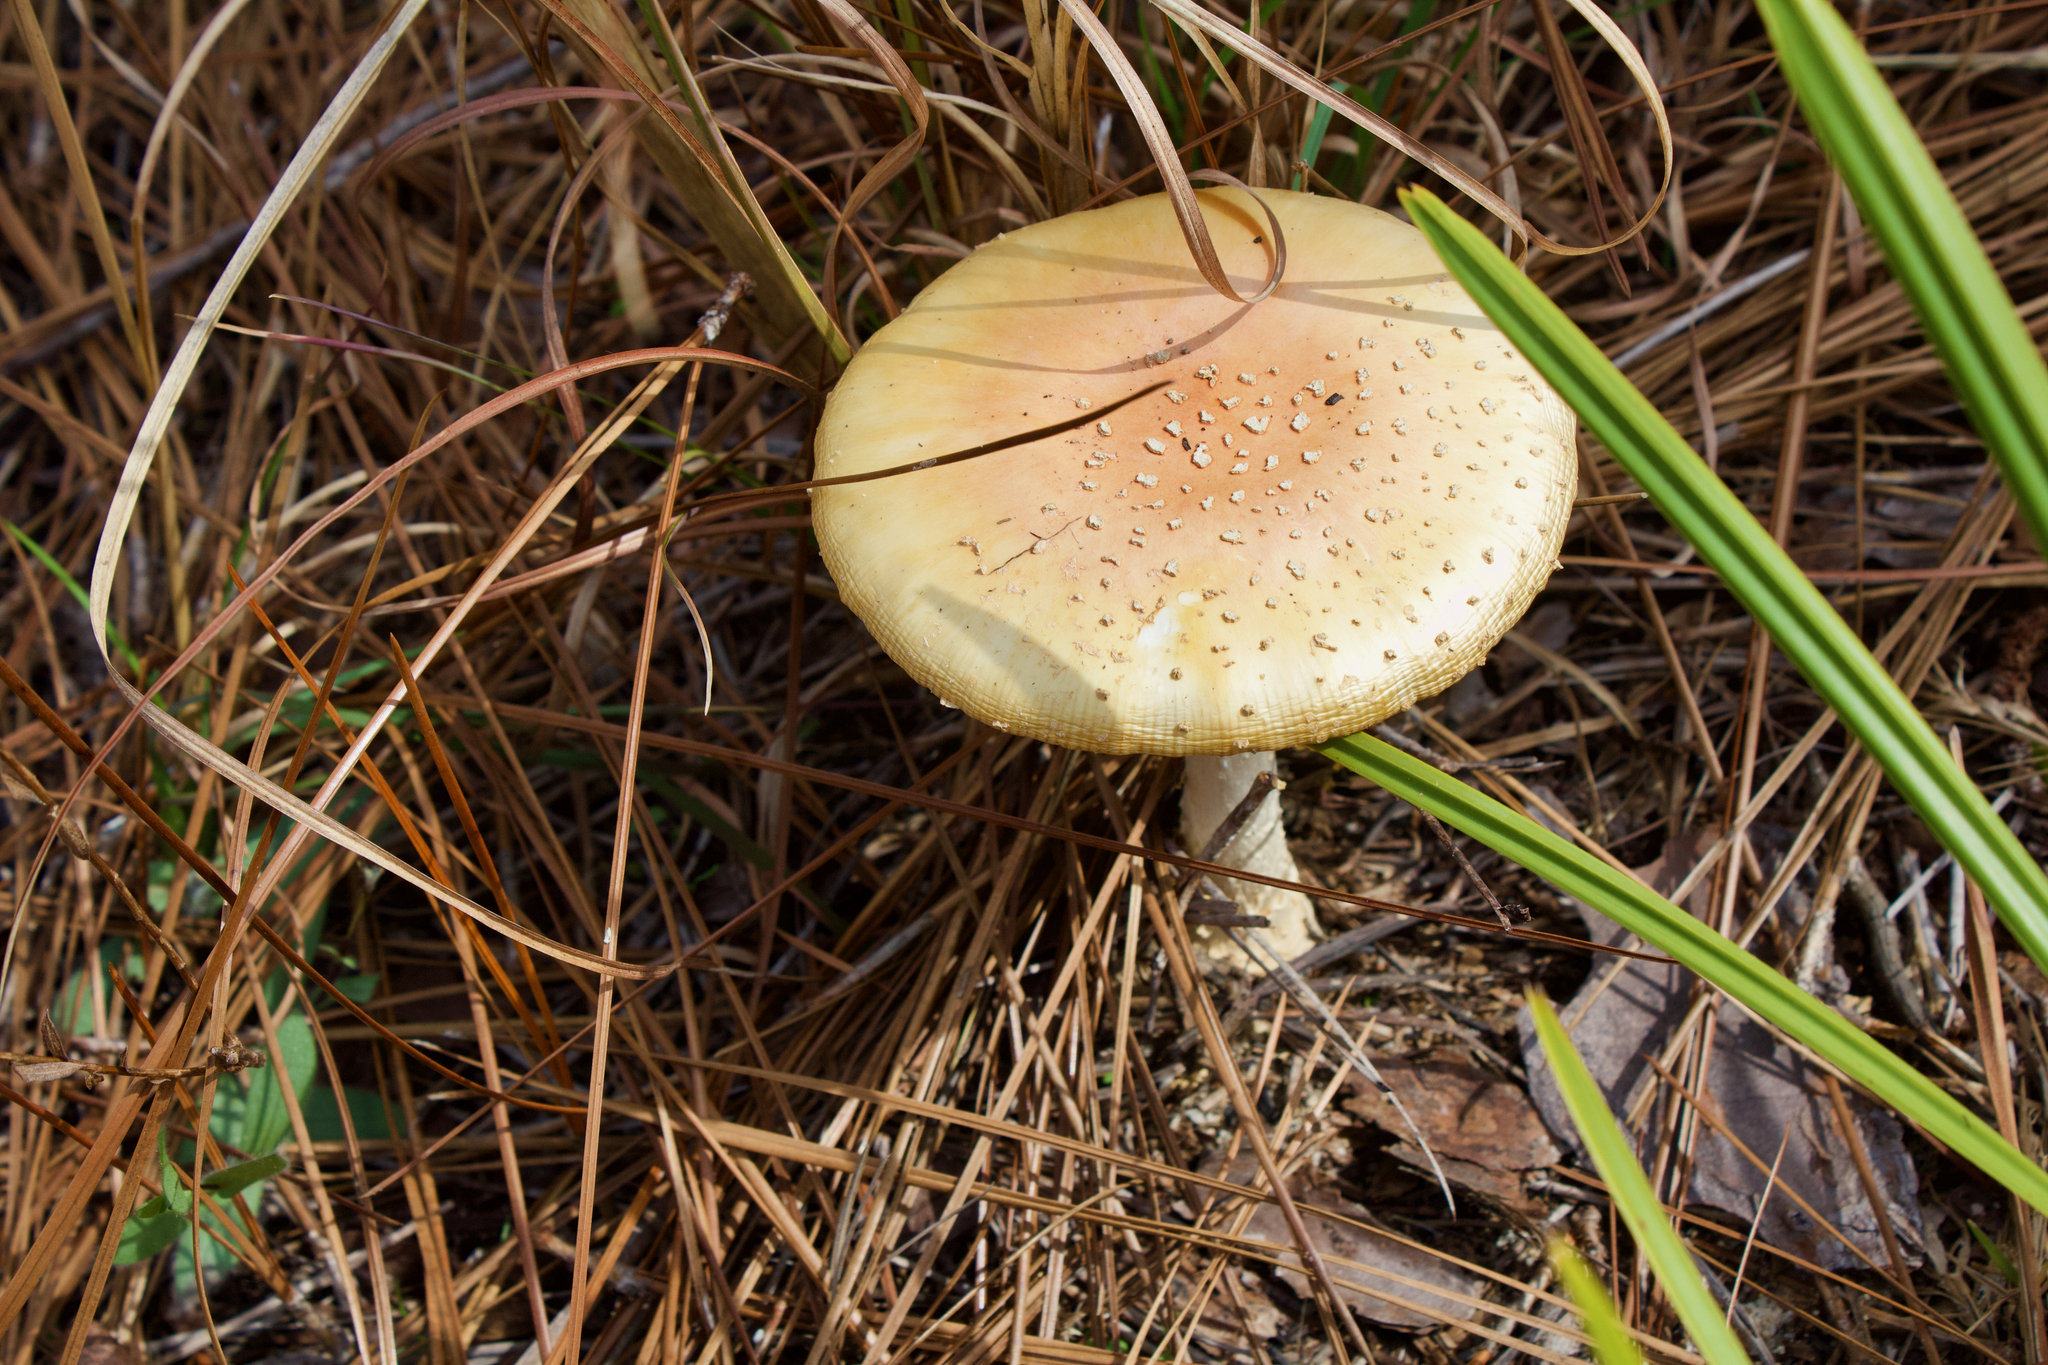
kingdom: Fungi
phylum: Basidiomycota
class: Agaricomycetes
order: Agaricales
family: Amanitaceae
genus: Amanita
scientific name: Amanita persicina
